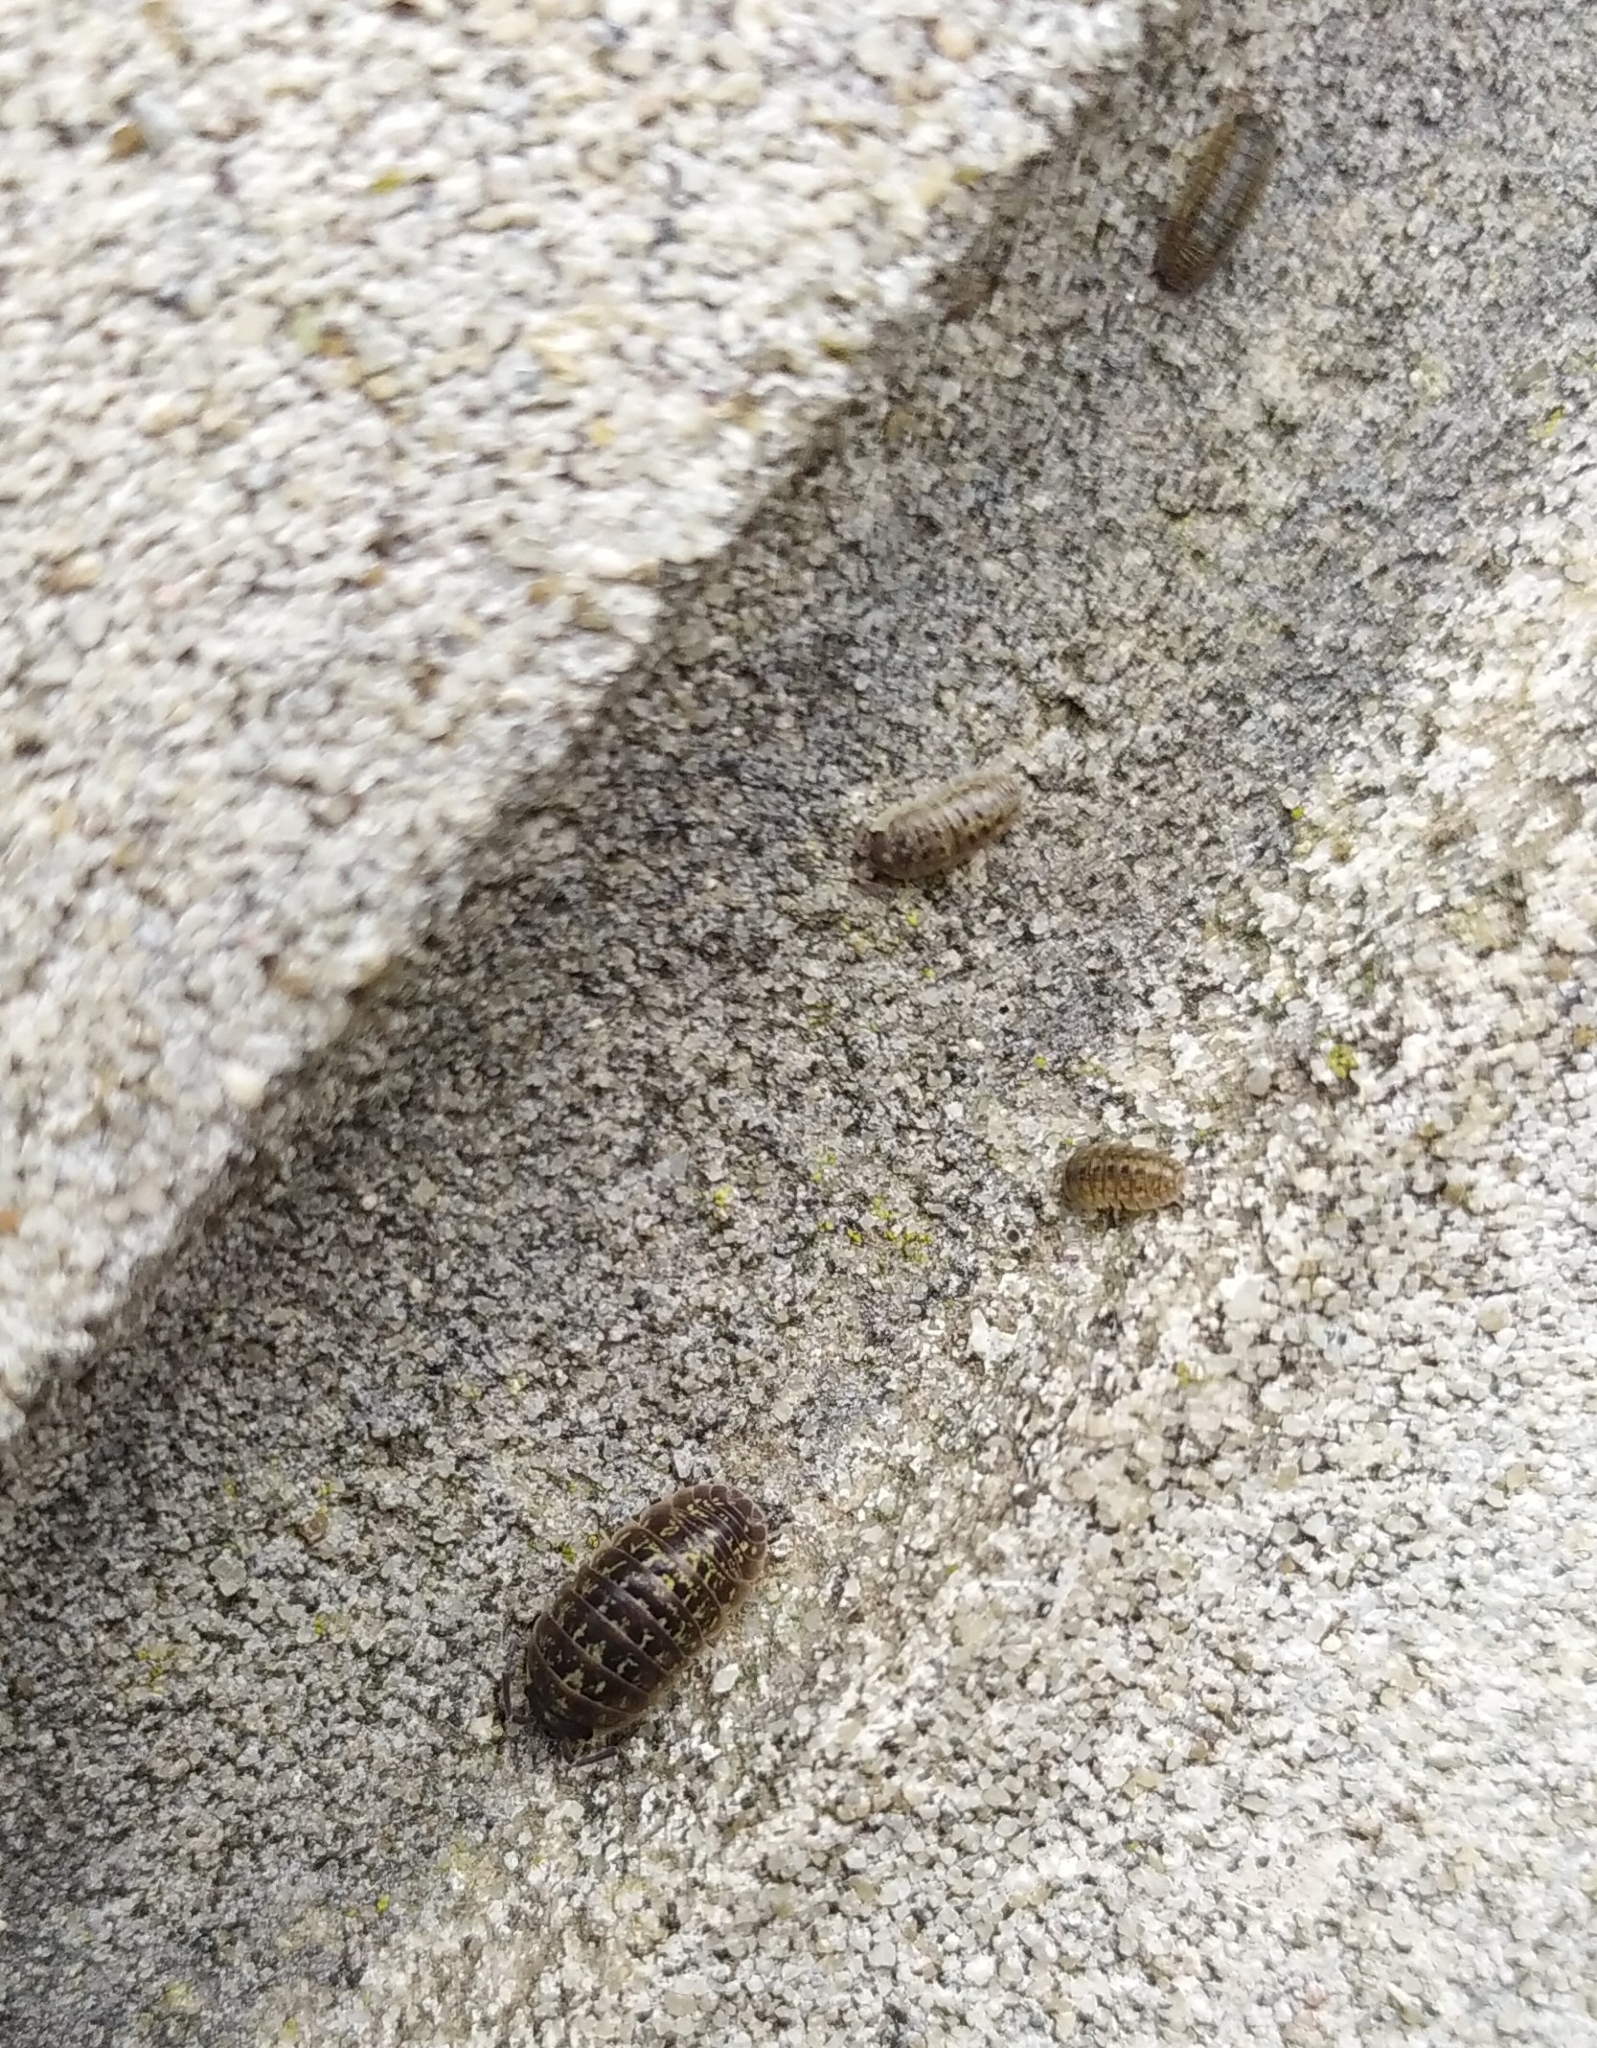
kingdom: Animalia
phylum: Arthropoda
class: Malacostraca
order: Isopoda
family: Armadillidiidae
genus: Armadillidium
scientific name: Armadillidium versicolor
